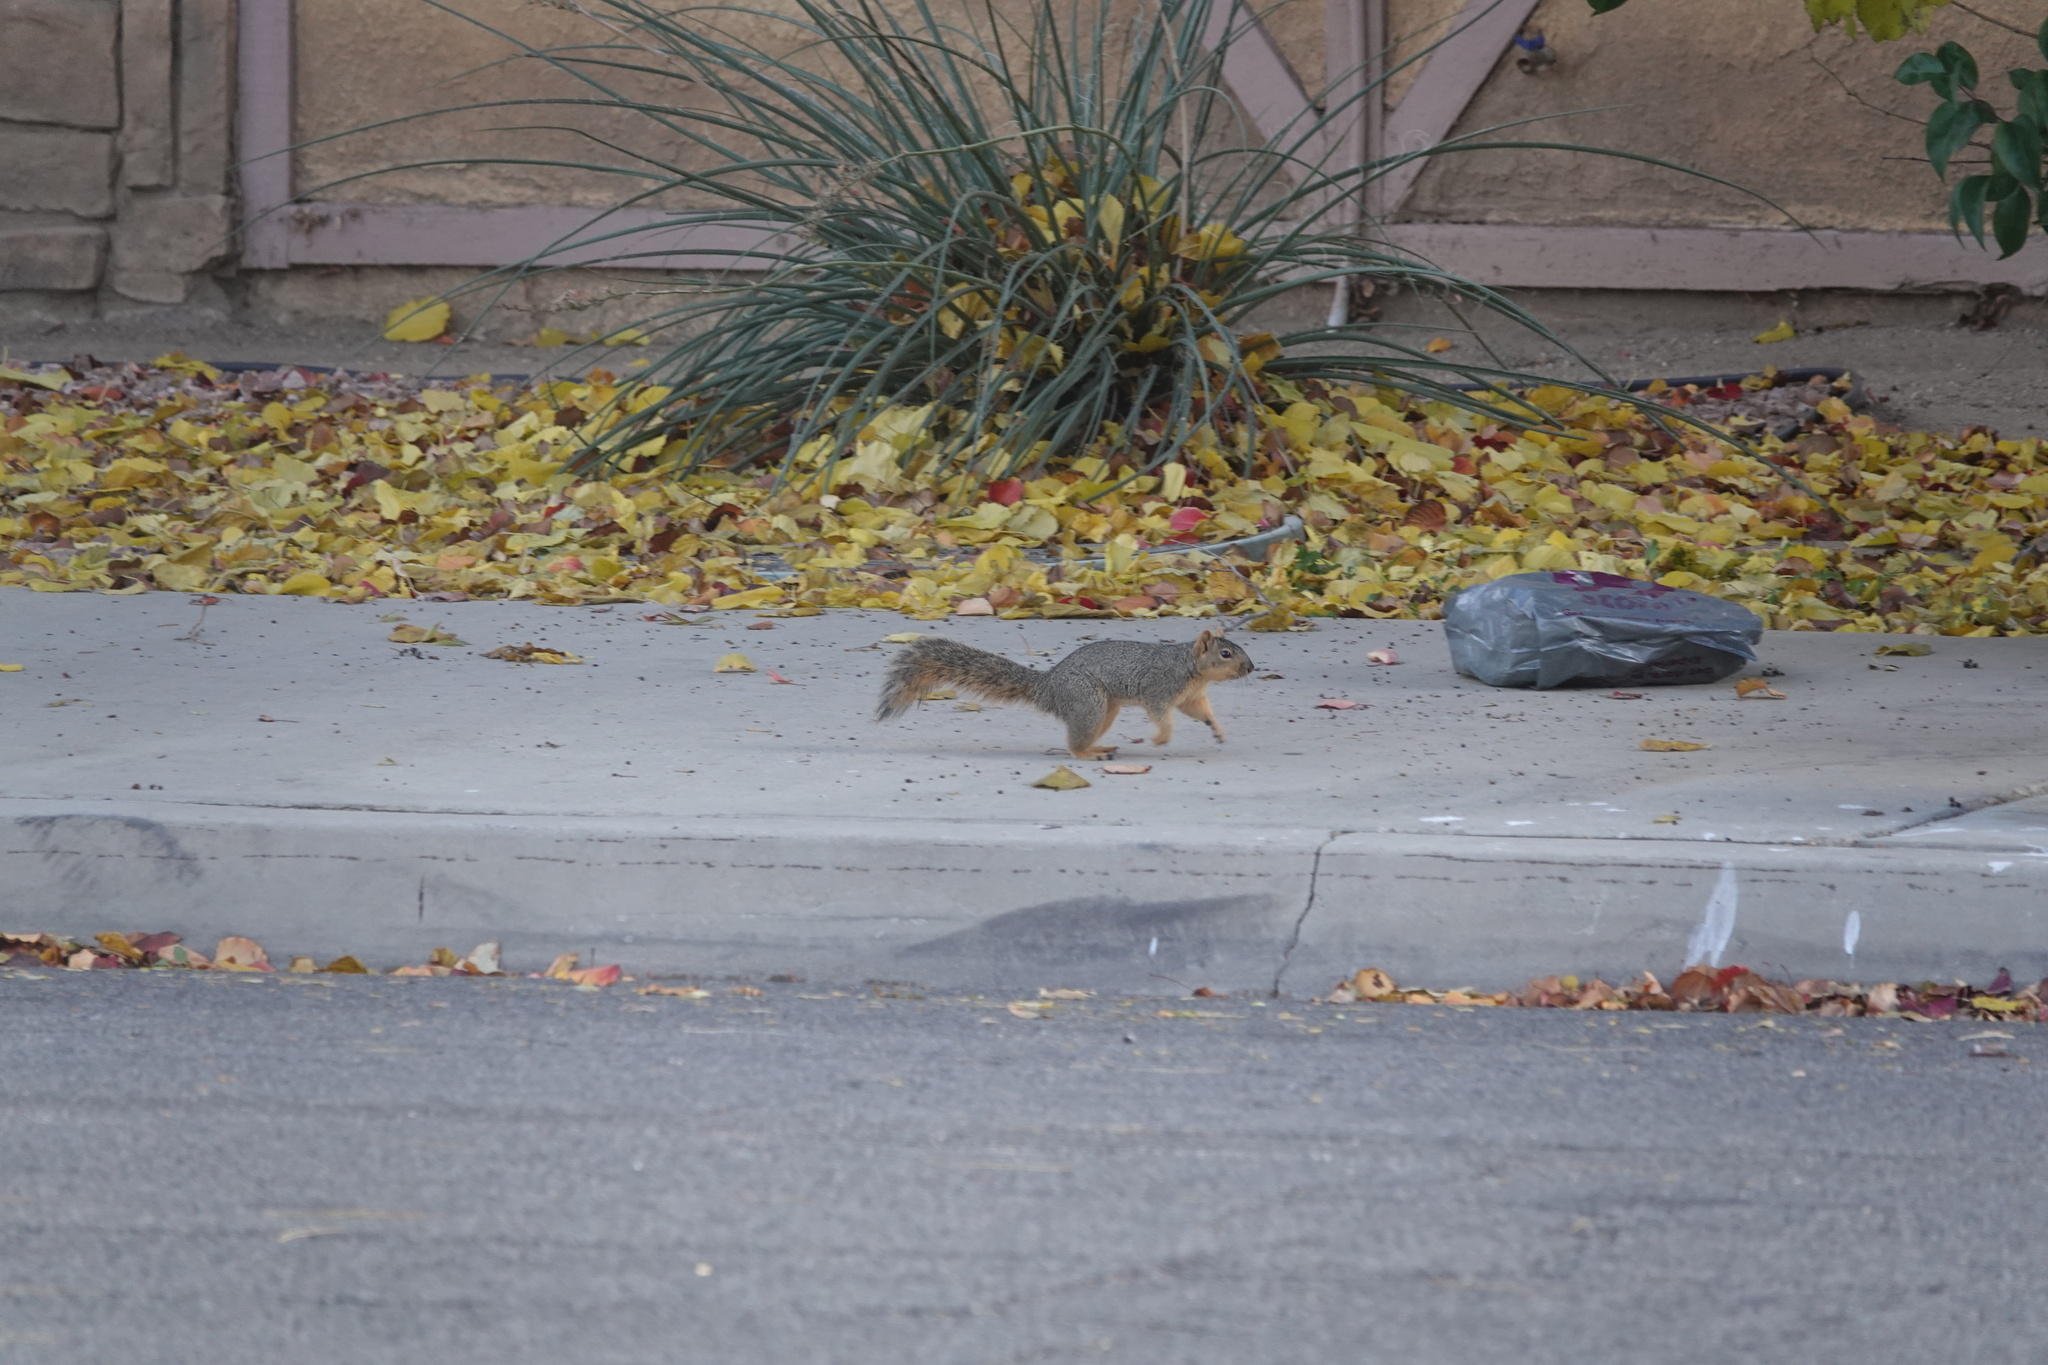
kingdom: Animalia
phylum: Chordata
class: Mammalia
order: Rodentia
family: Sciuridae
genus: Sciurus
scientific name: Sciurus niger
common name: Fox squirrel
